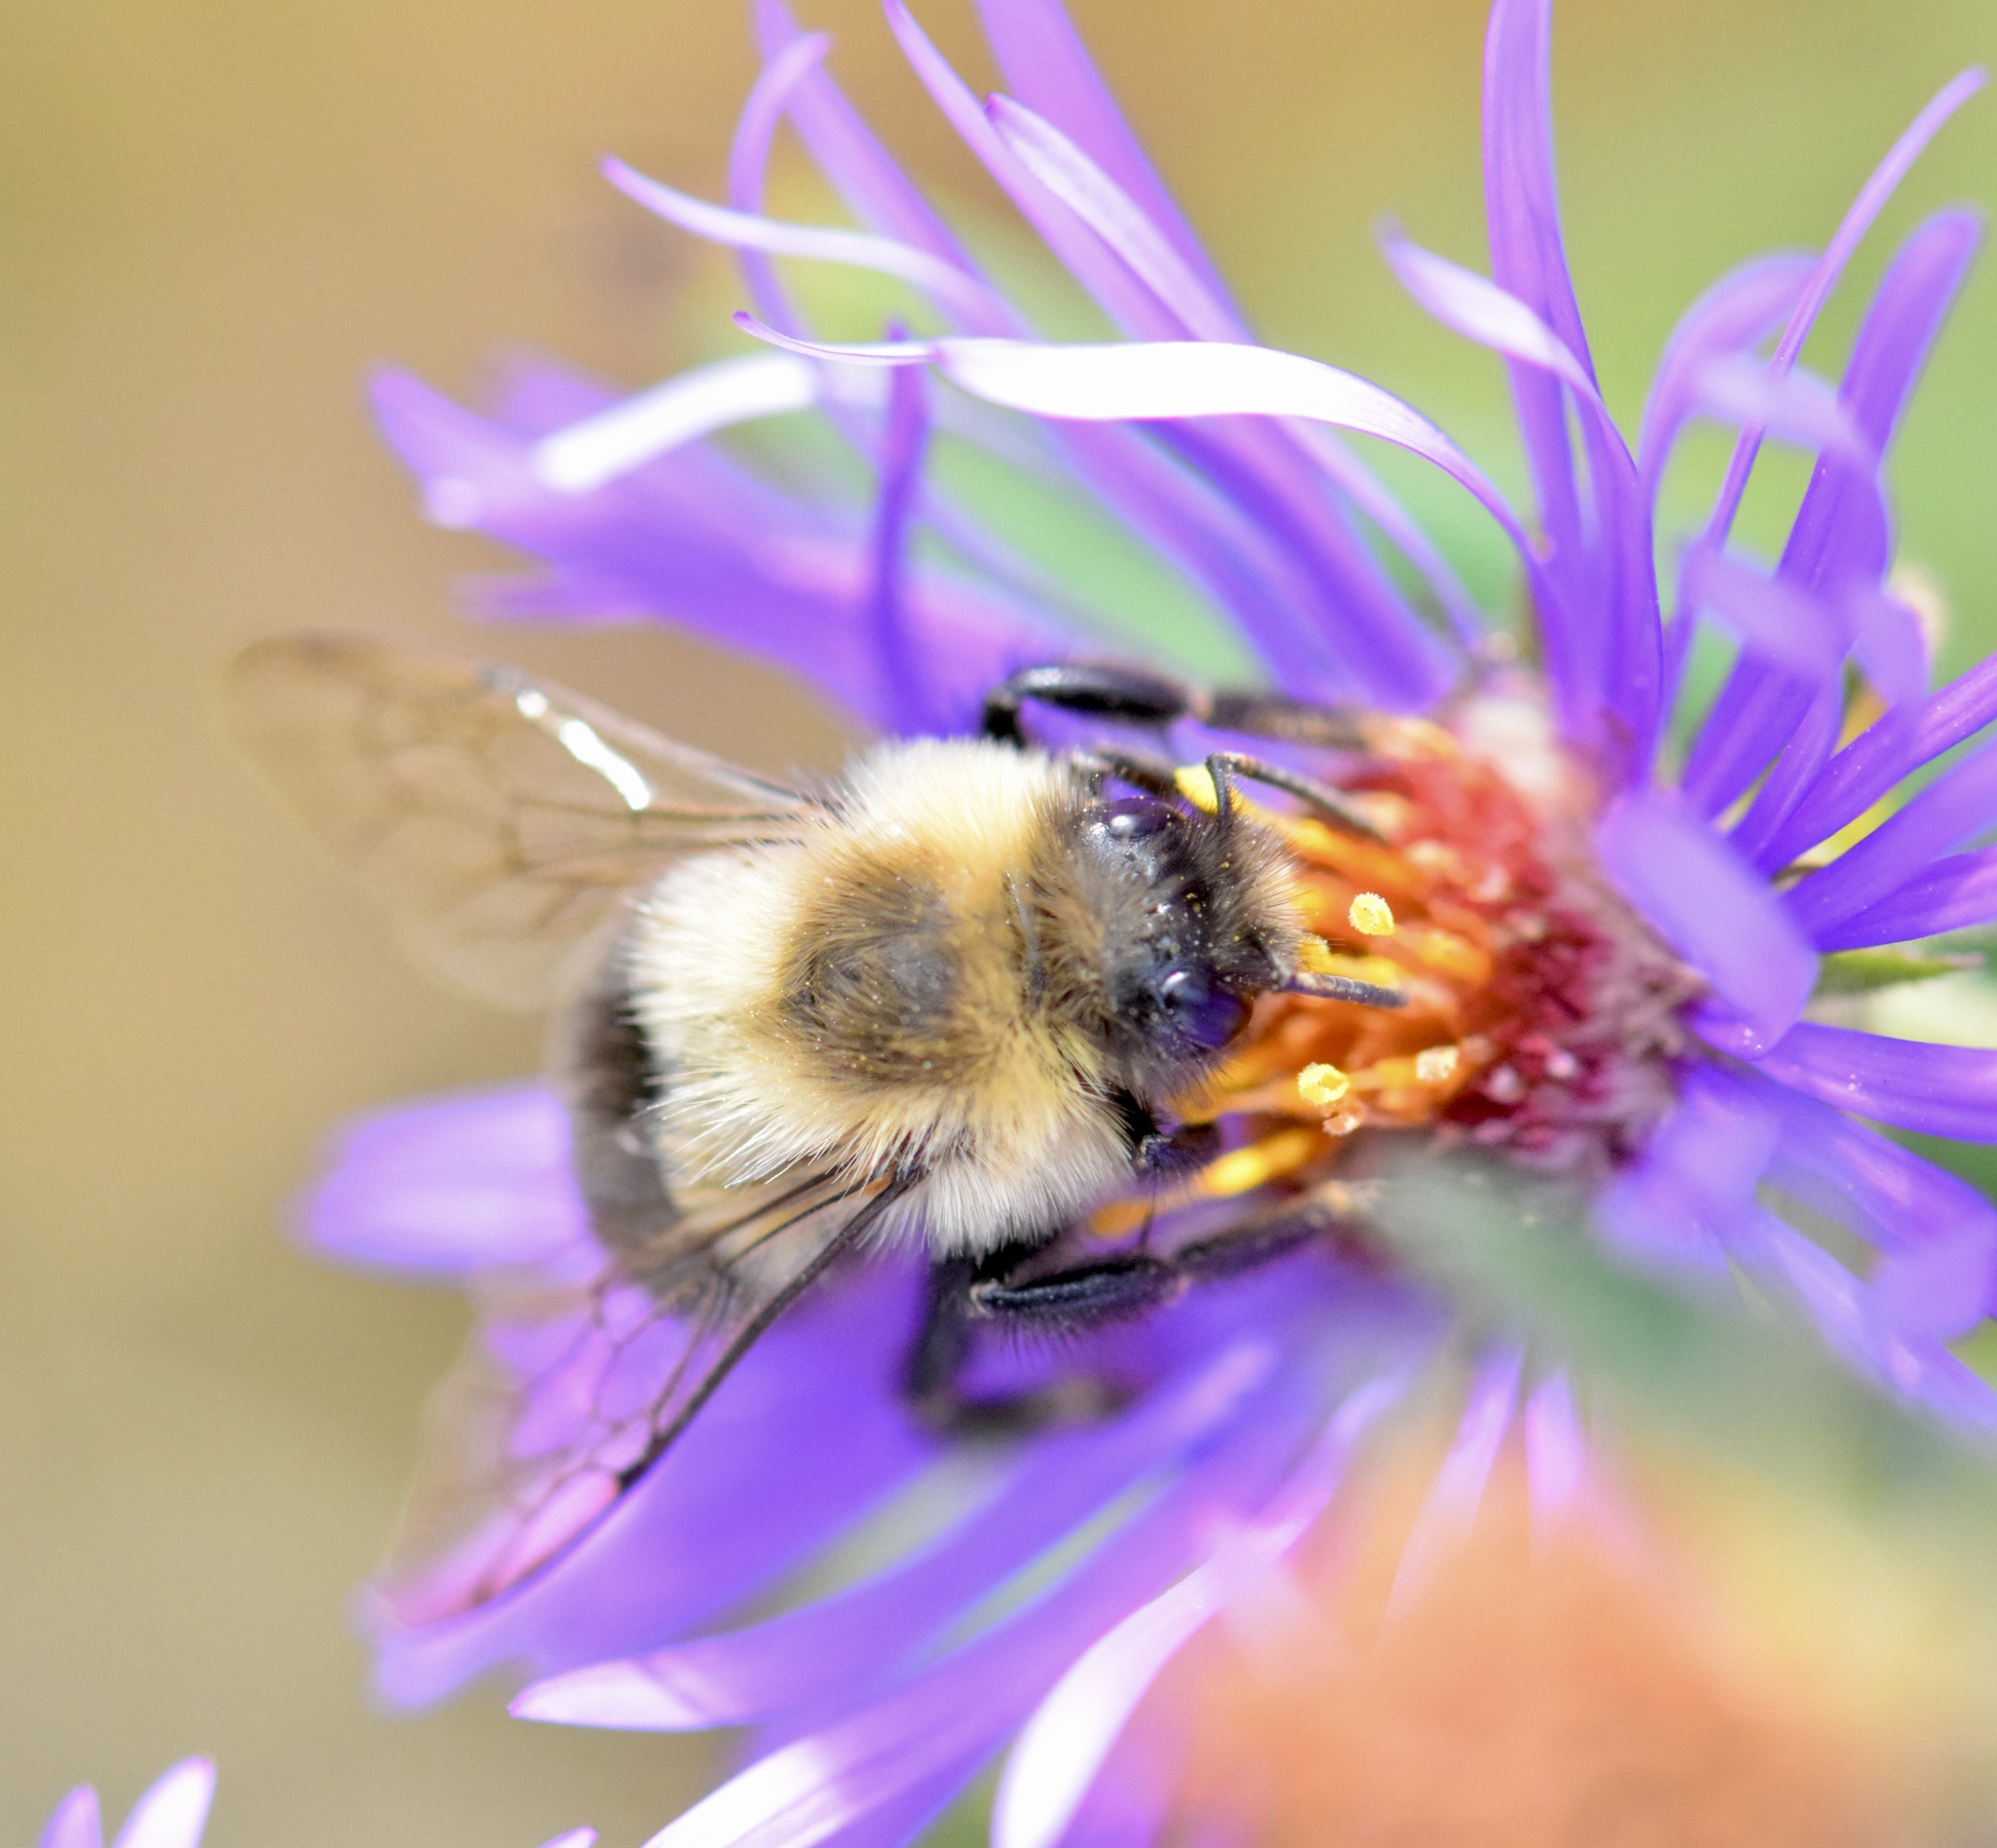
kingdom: Animalia
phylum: Arthropoda
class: Insecta
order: Hymenoptera
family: Apidae
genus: Bombus
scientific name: Bombus impatiens
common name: Common eastern bumble bee
